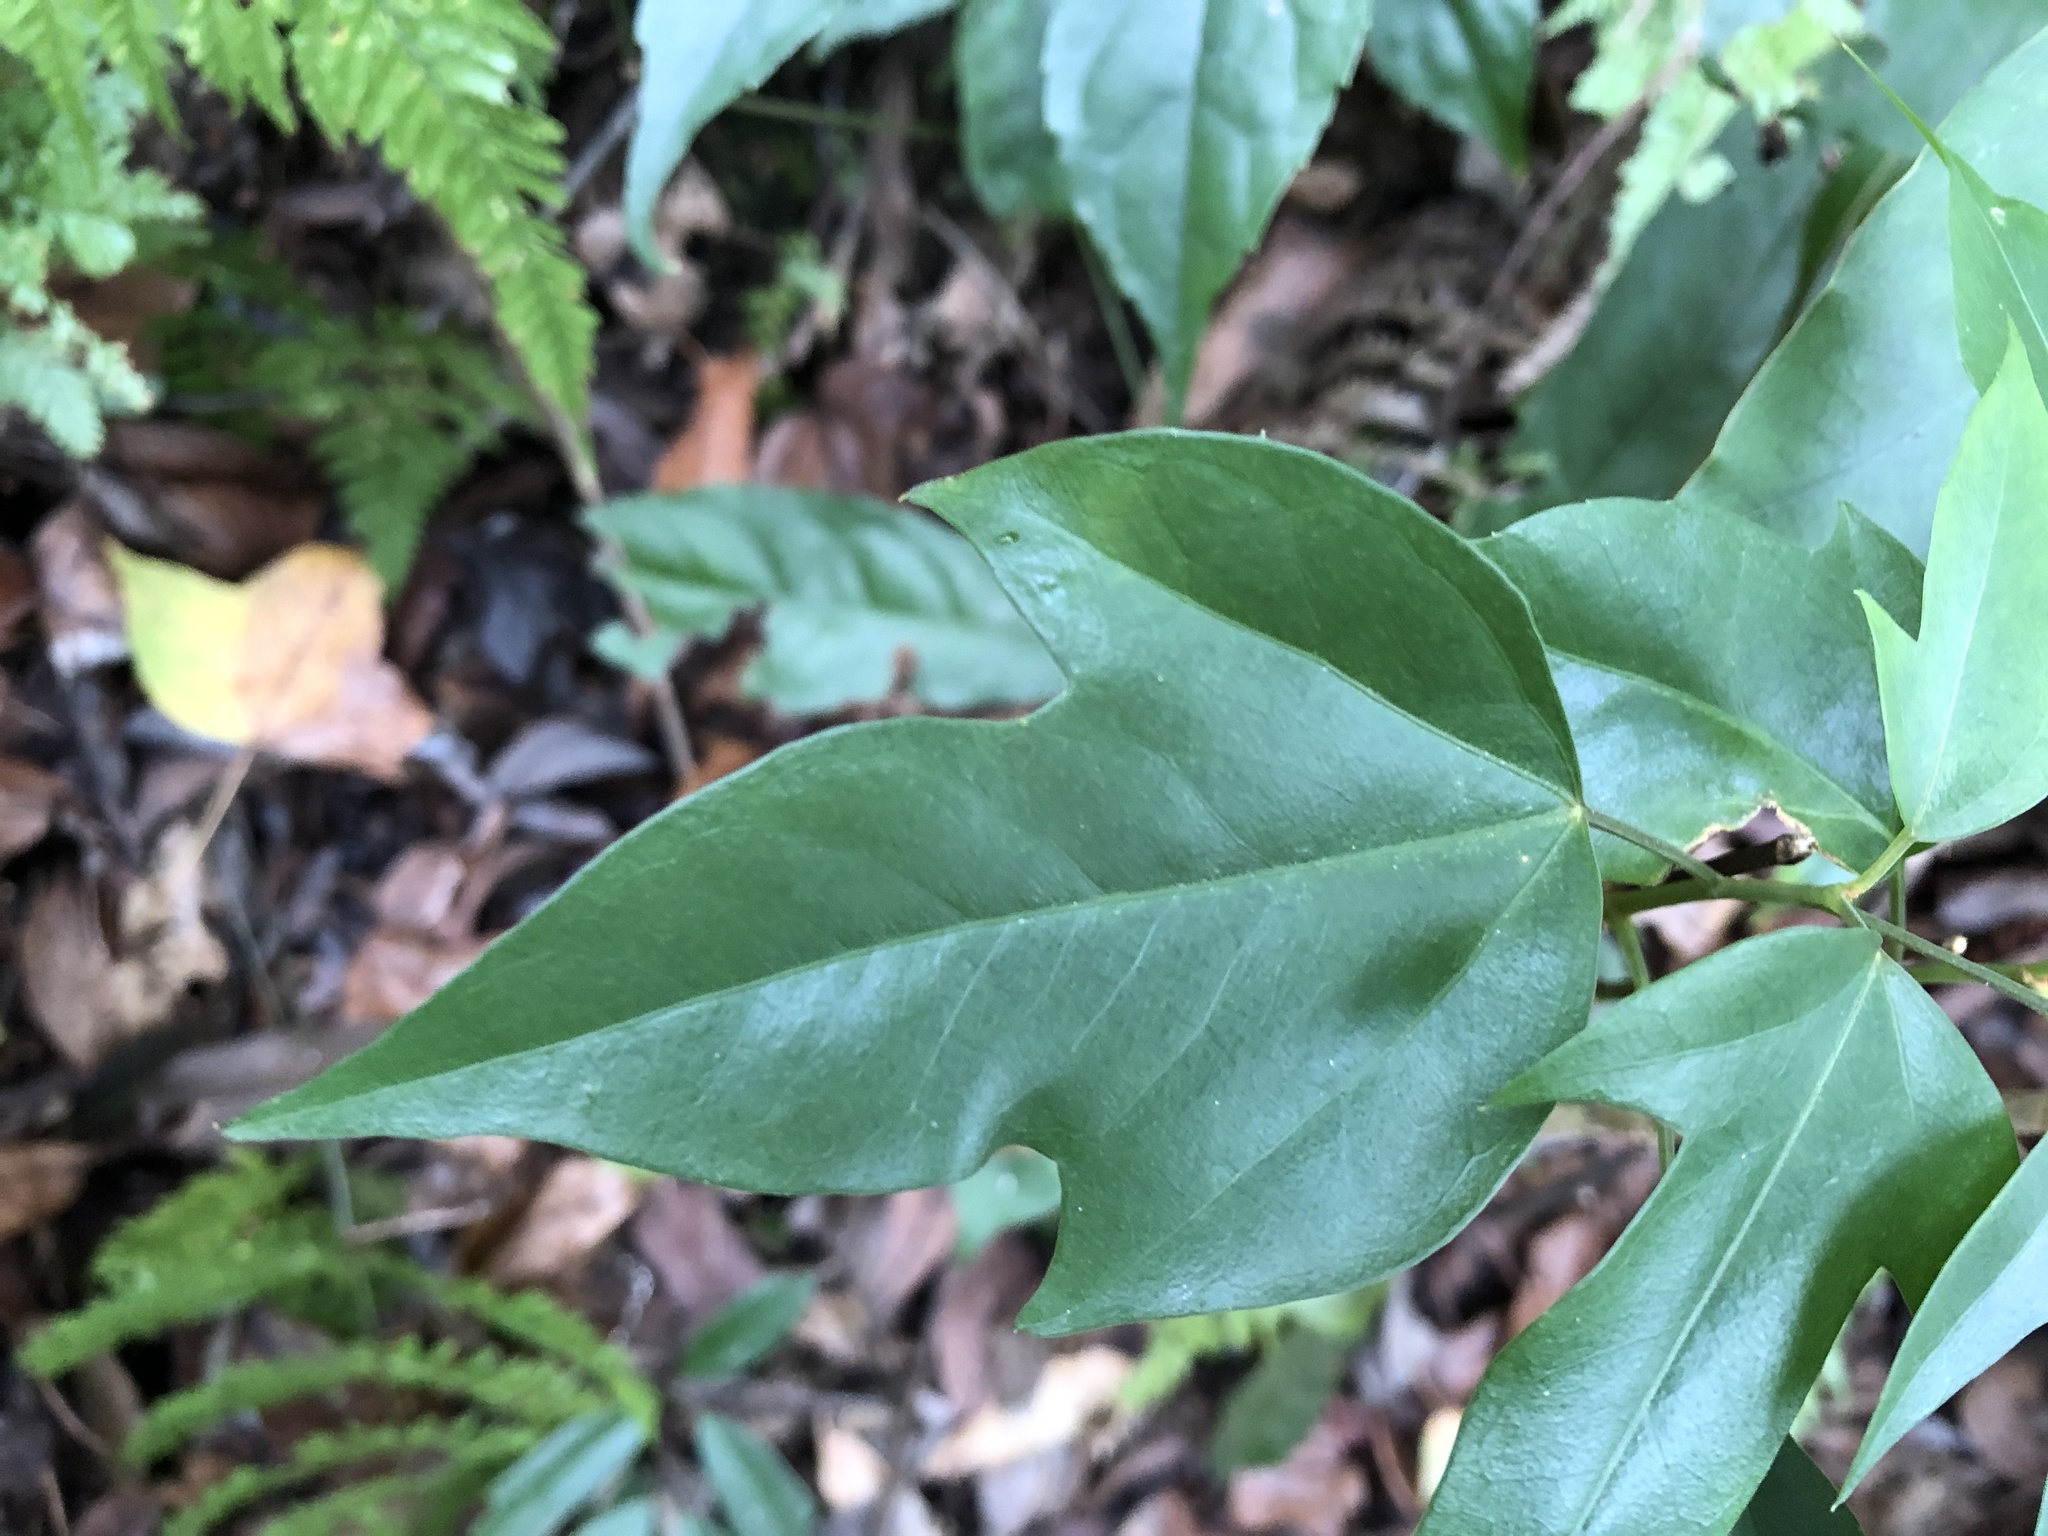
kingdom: Plantae
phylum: Tracheophyta
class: Magnoliopsida
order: Apiales
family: Araliaceae
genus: Dendropanax
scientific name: Dendropanax dentiger
